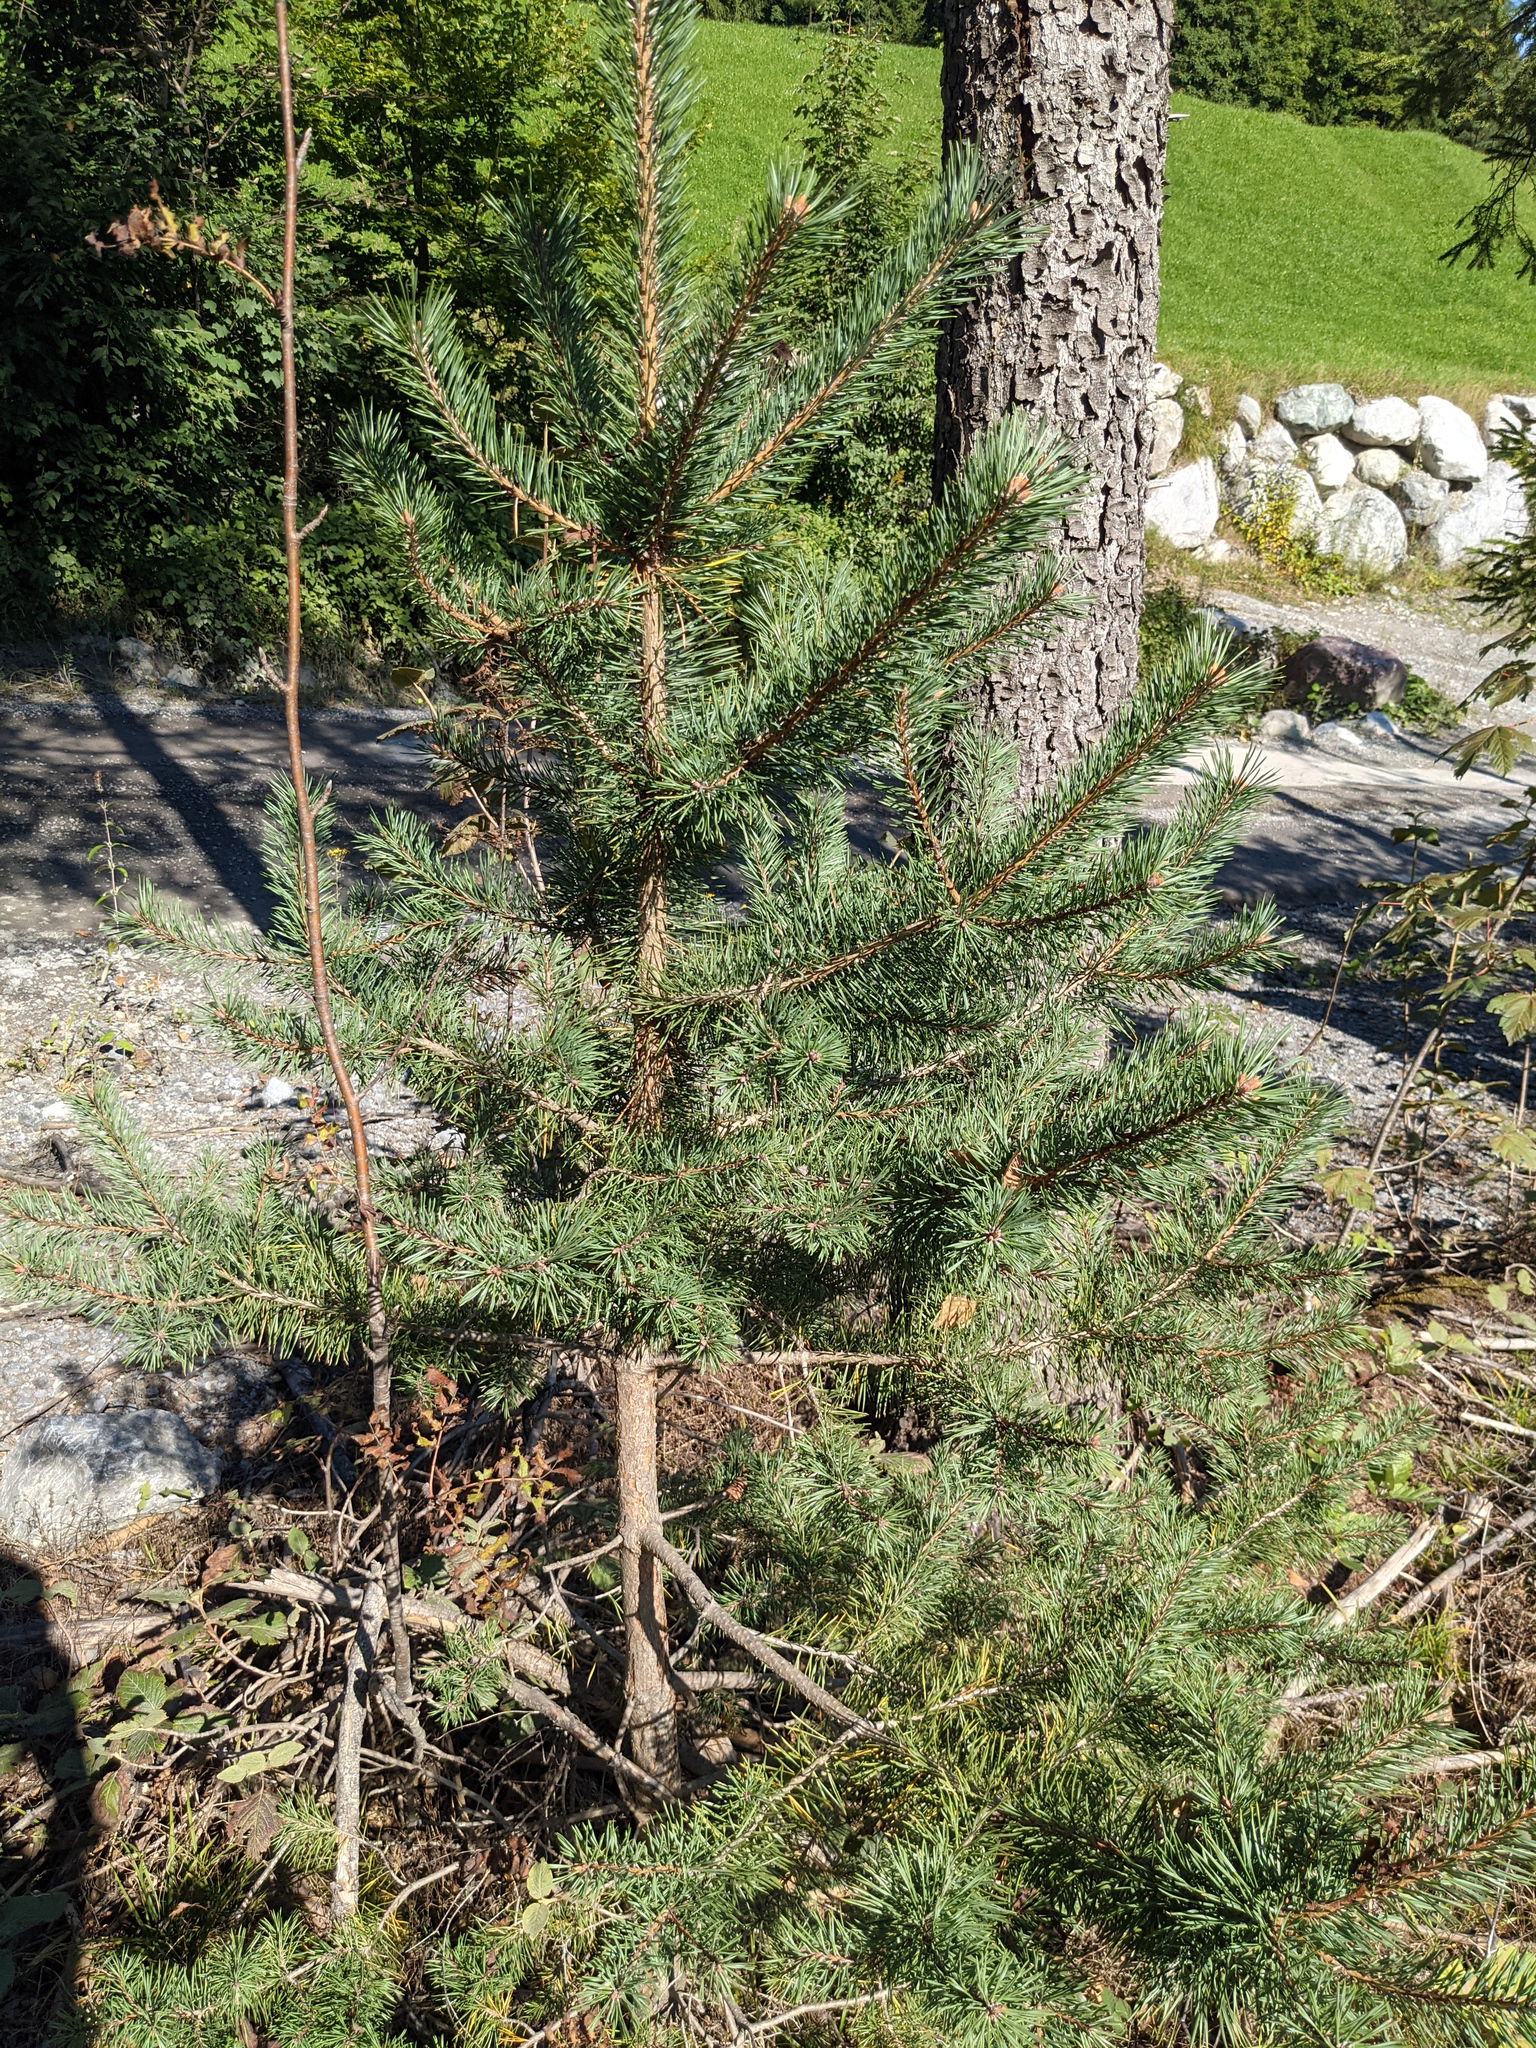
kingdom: Plantae
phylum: Tracheophyta
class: Pinopsida
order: Pinales
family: Pinaceae
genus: Pinus
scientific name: Pinus sylvestris
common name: Scots pine
